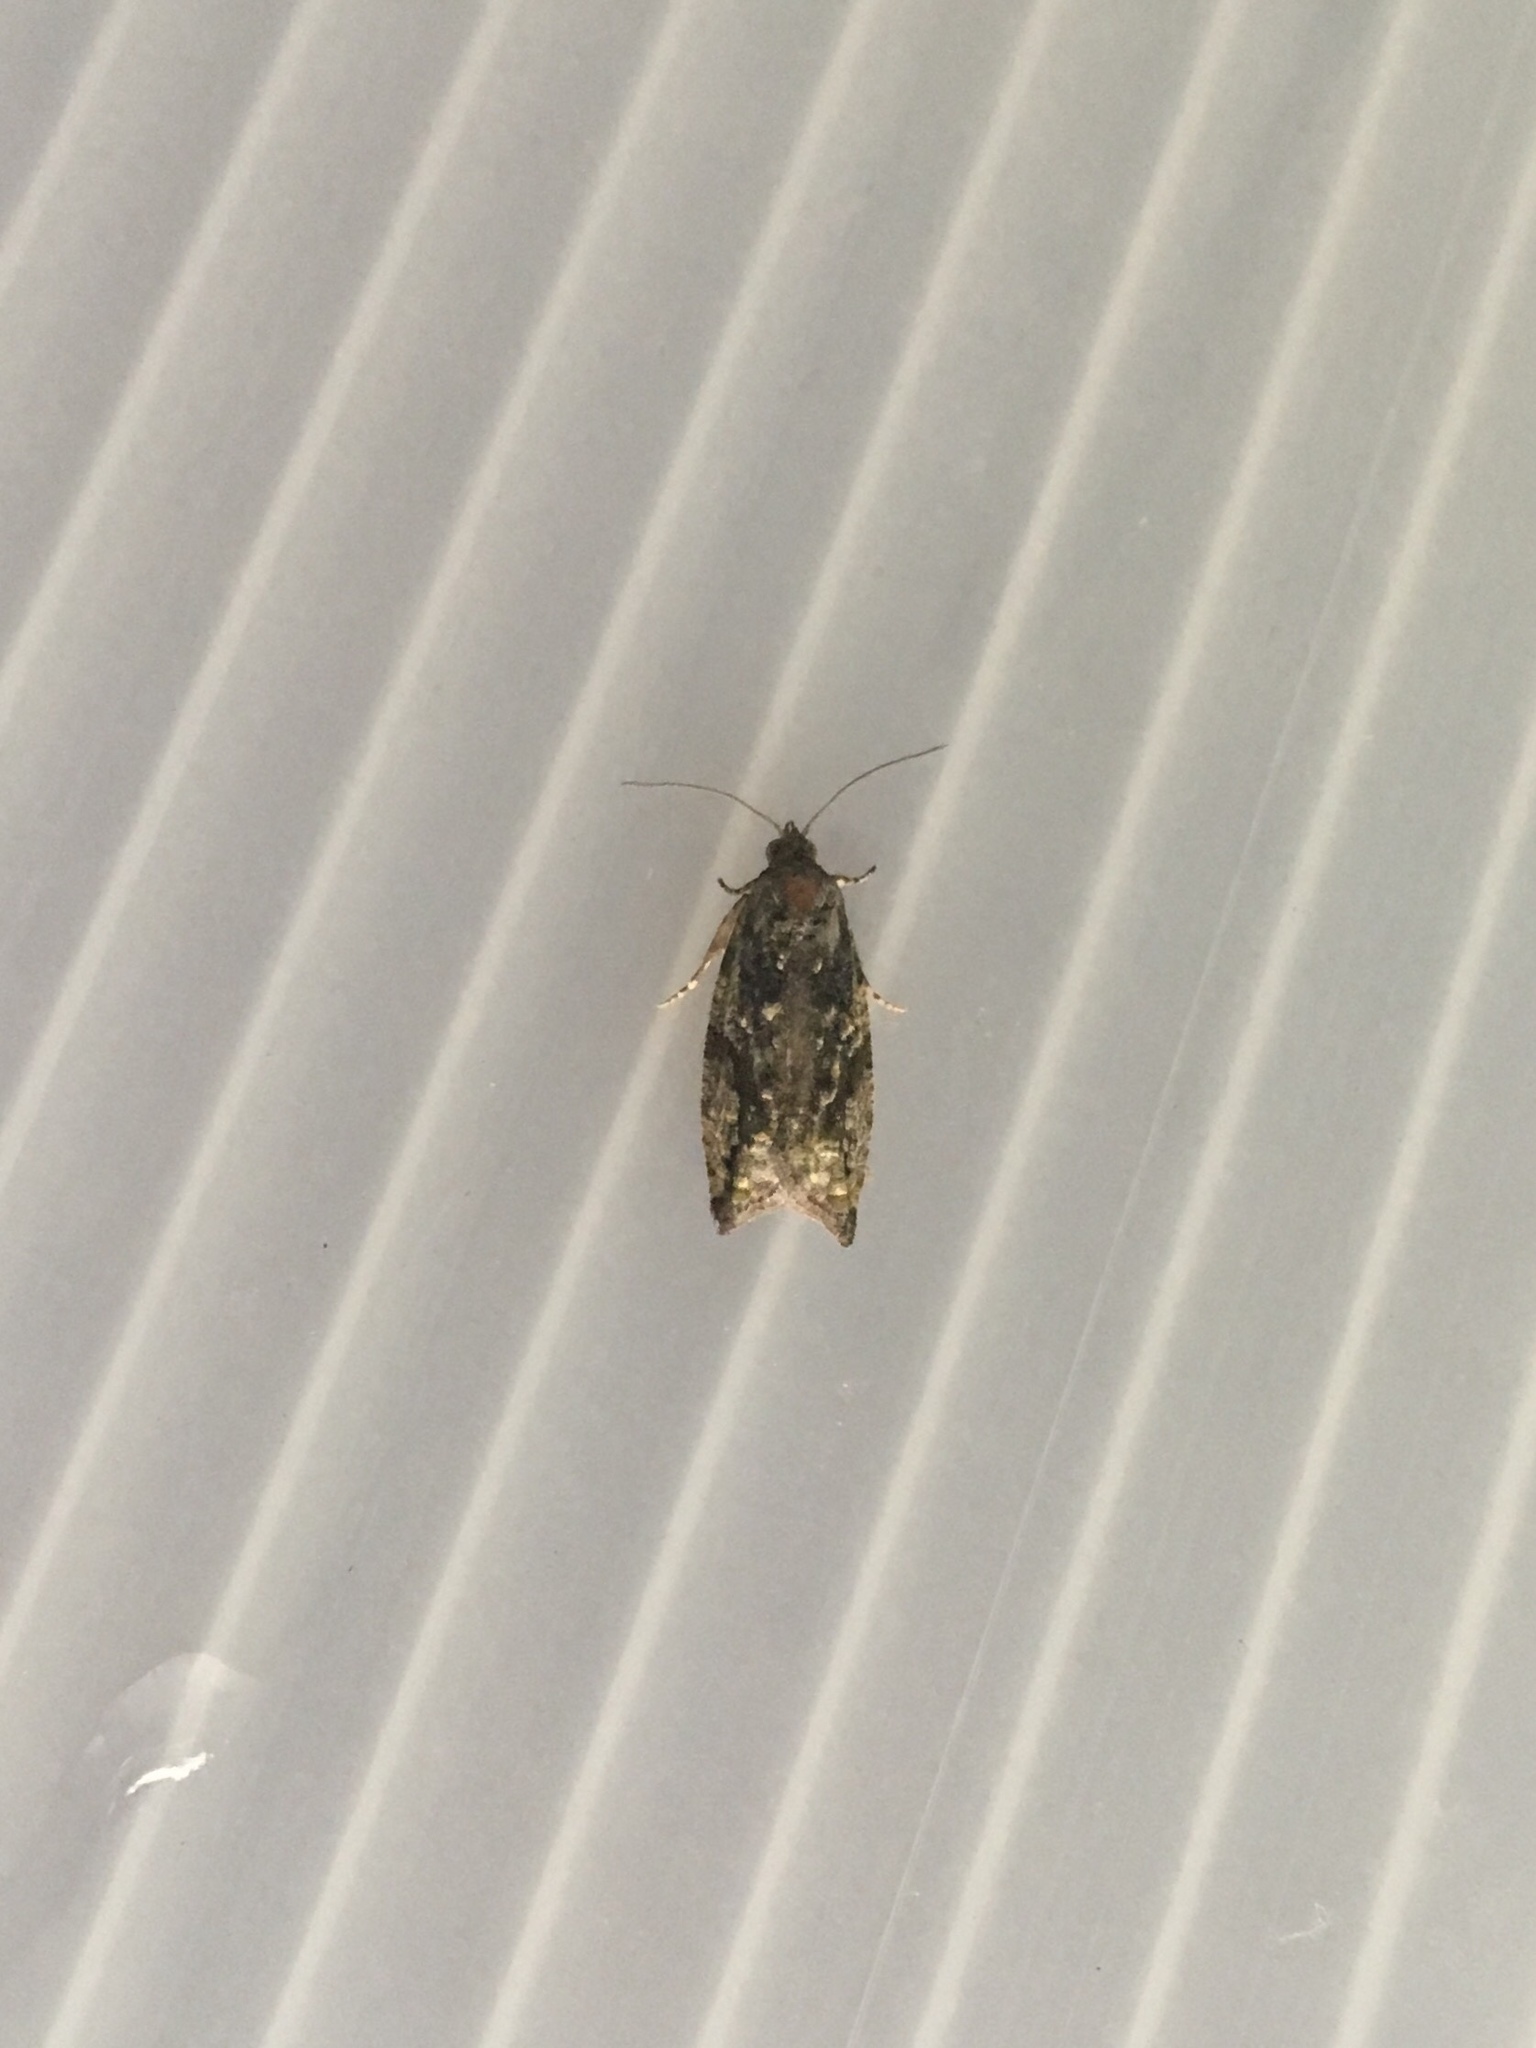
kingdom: Animalia
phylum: Arthropoda
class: Insecta
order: Lepidoptera
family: Tortricidae
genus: Proteoteras
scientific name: Proteoteras aesculana
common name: Maple twig borer moth
